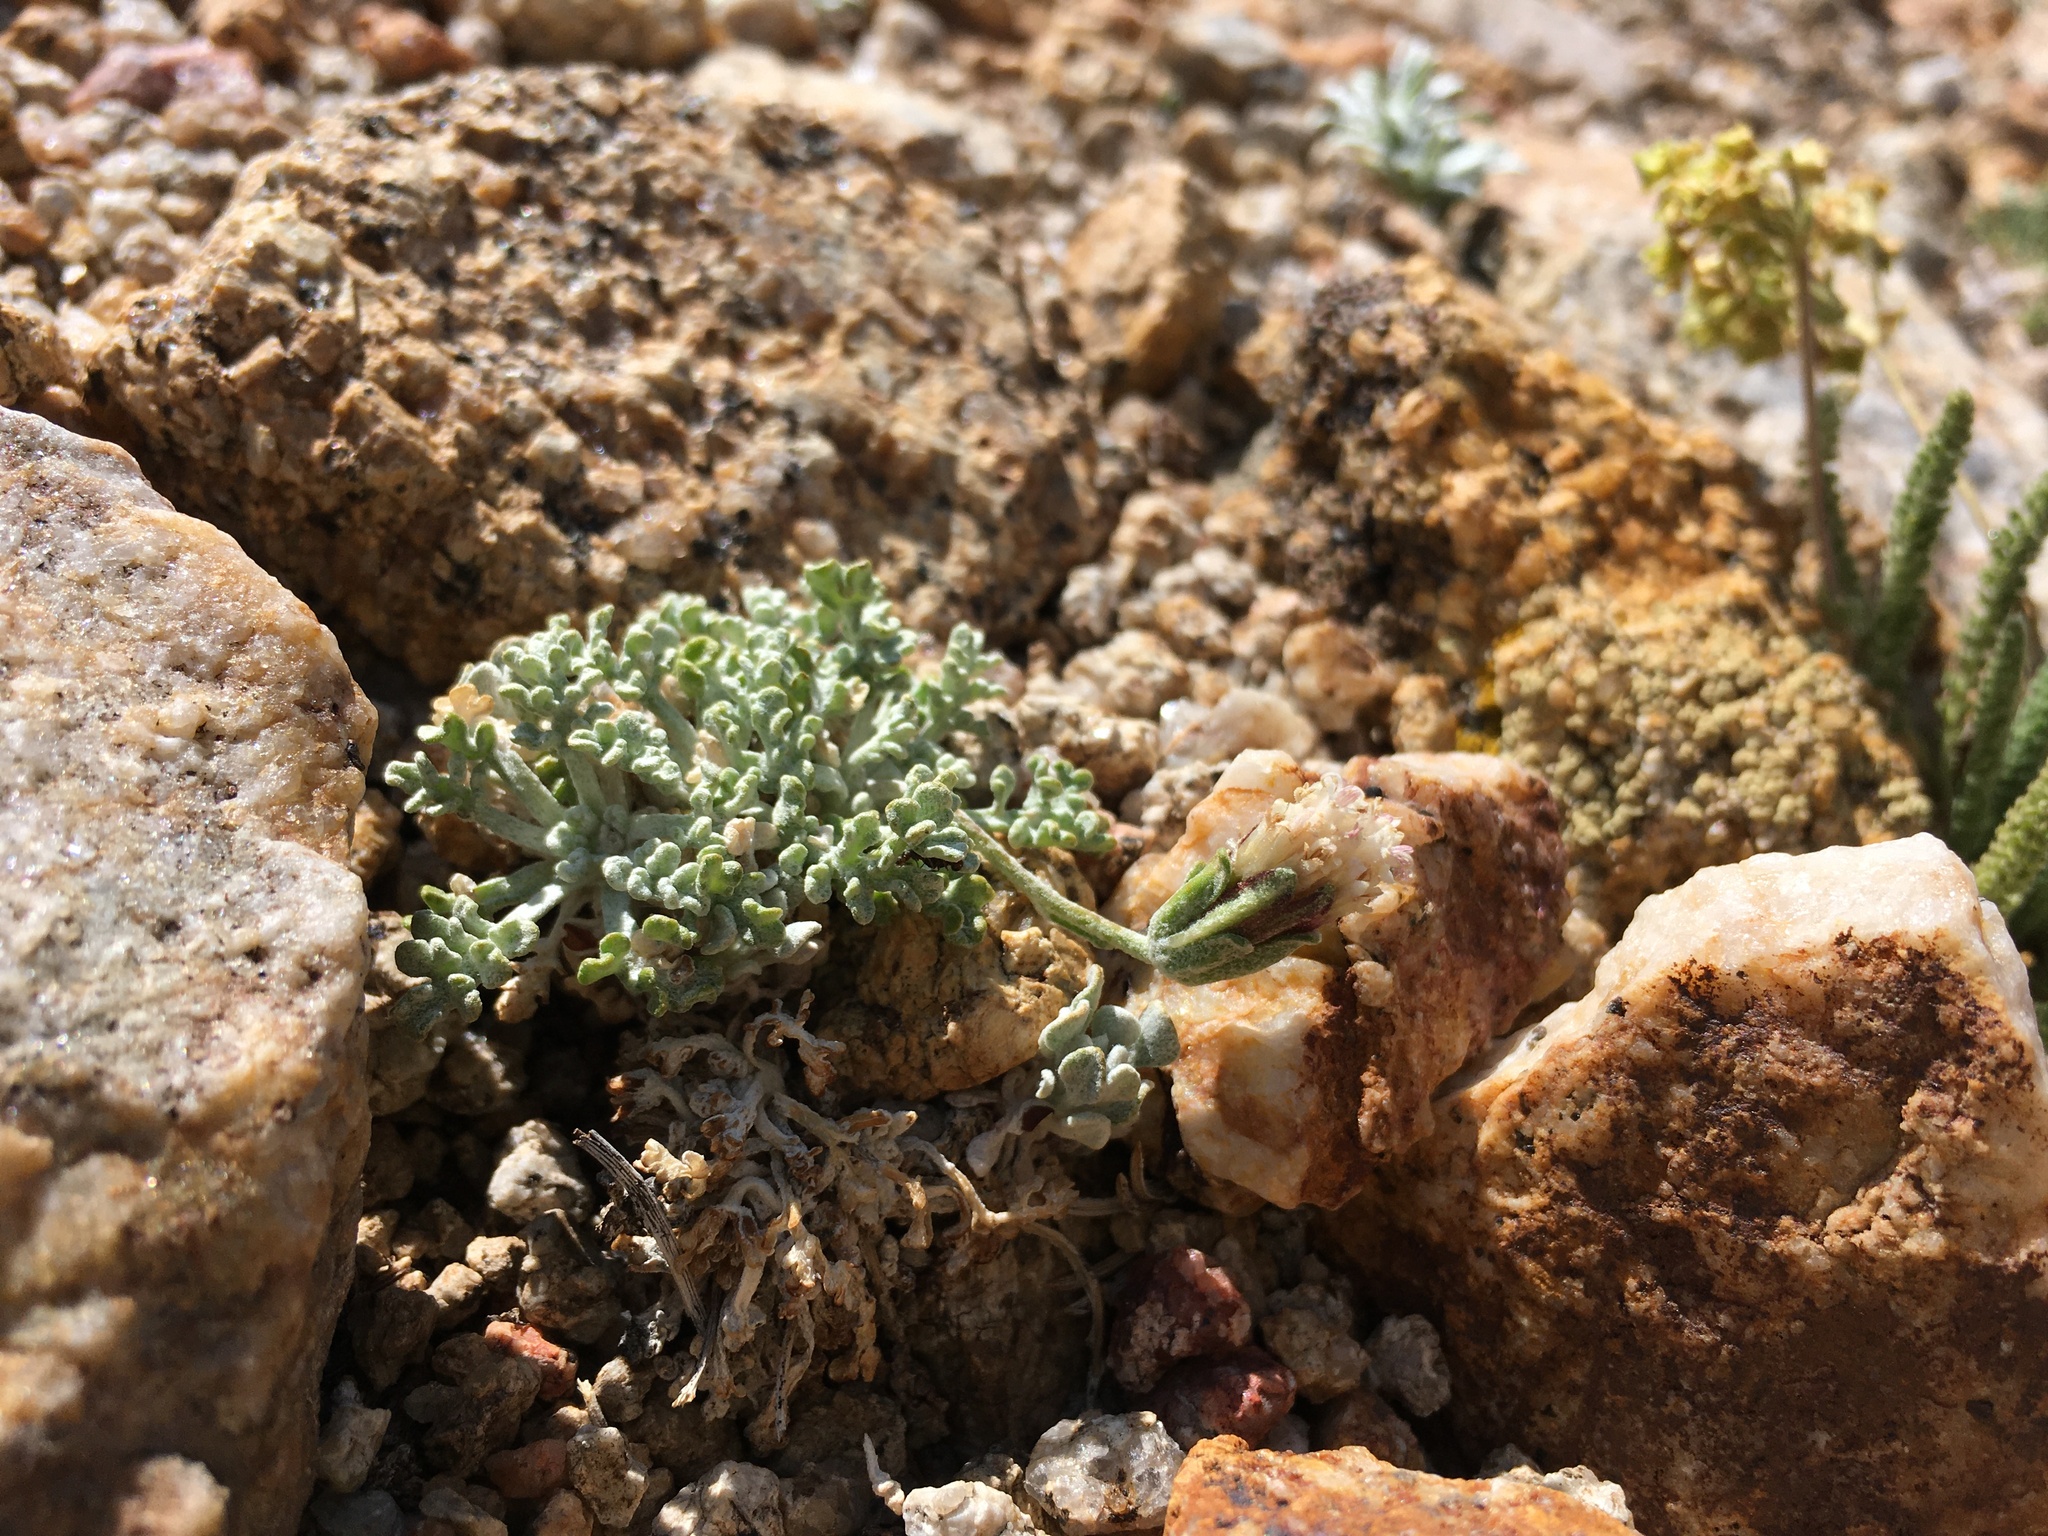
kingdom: Plantae
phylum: Tracheophyta
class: Magnoliopsida
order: Asterales
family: Asteraceae
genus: Chaenactis
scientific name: Chaenactis alpigena
